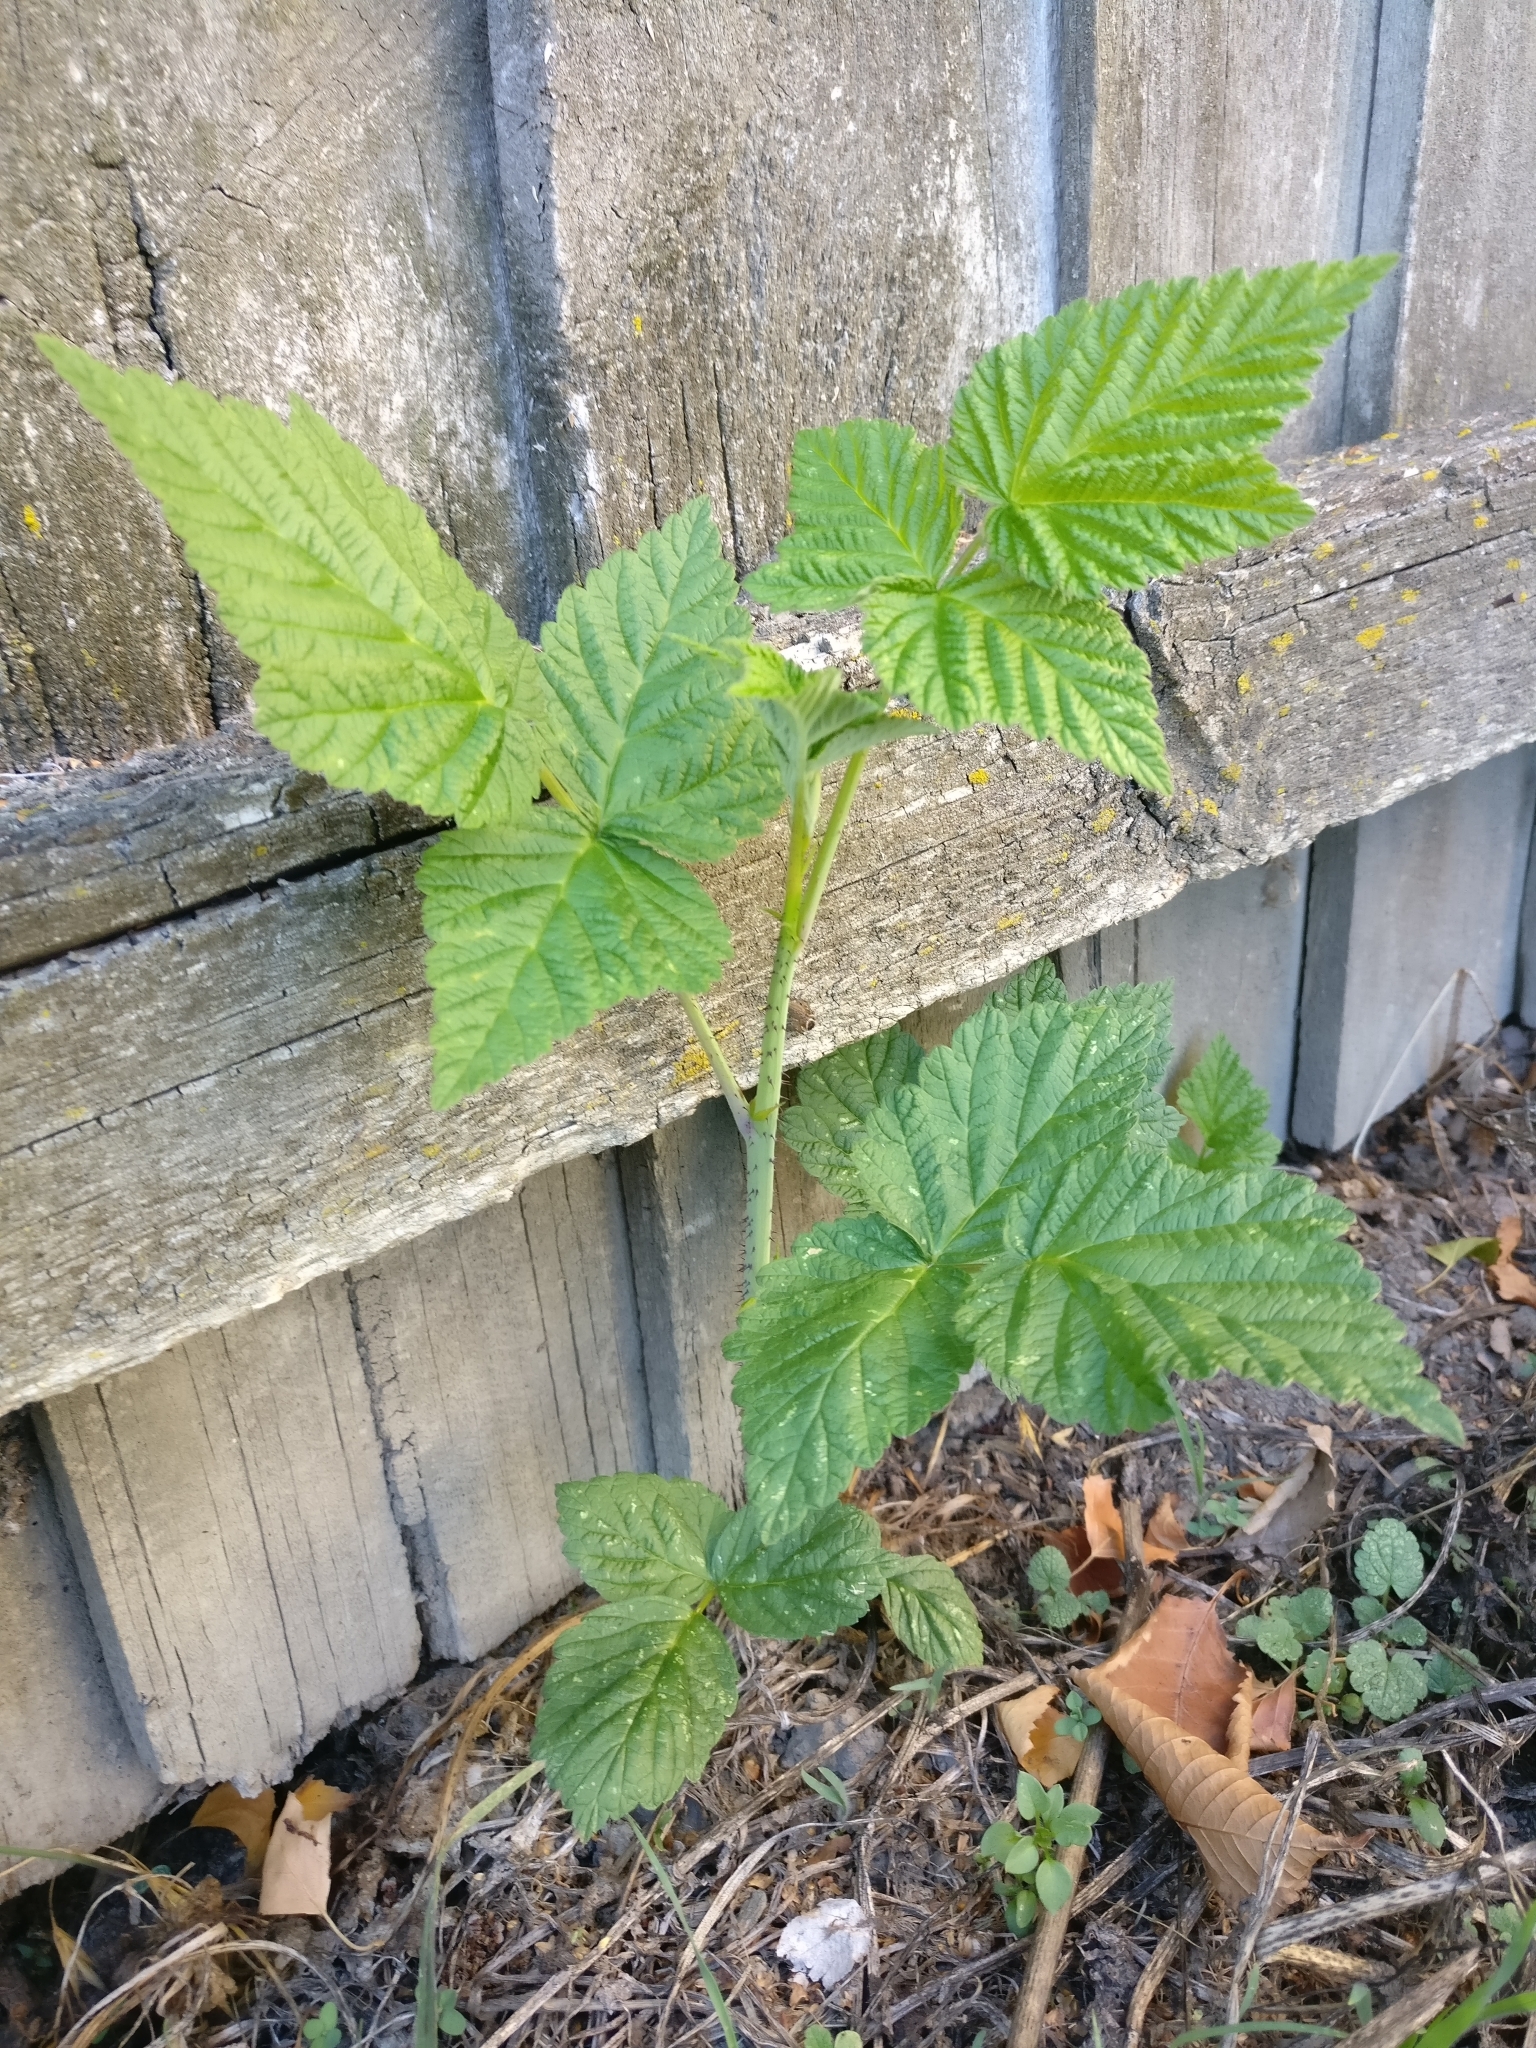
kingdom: Plantae
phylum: Tracheophyta
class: Magnoliopsida
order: Rosales
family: Rosaceae
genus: Rubus
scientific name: Rubus idaeus
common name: Raspberry
